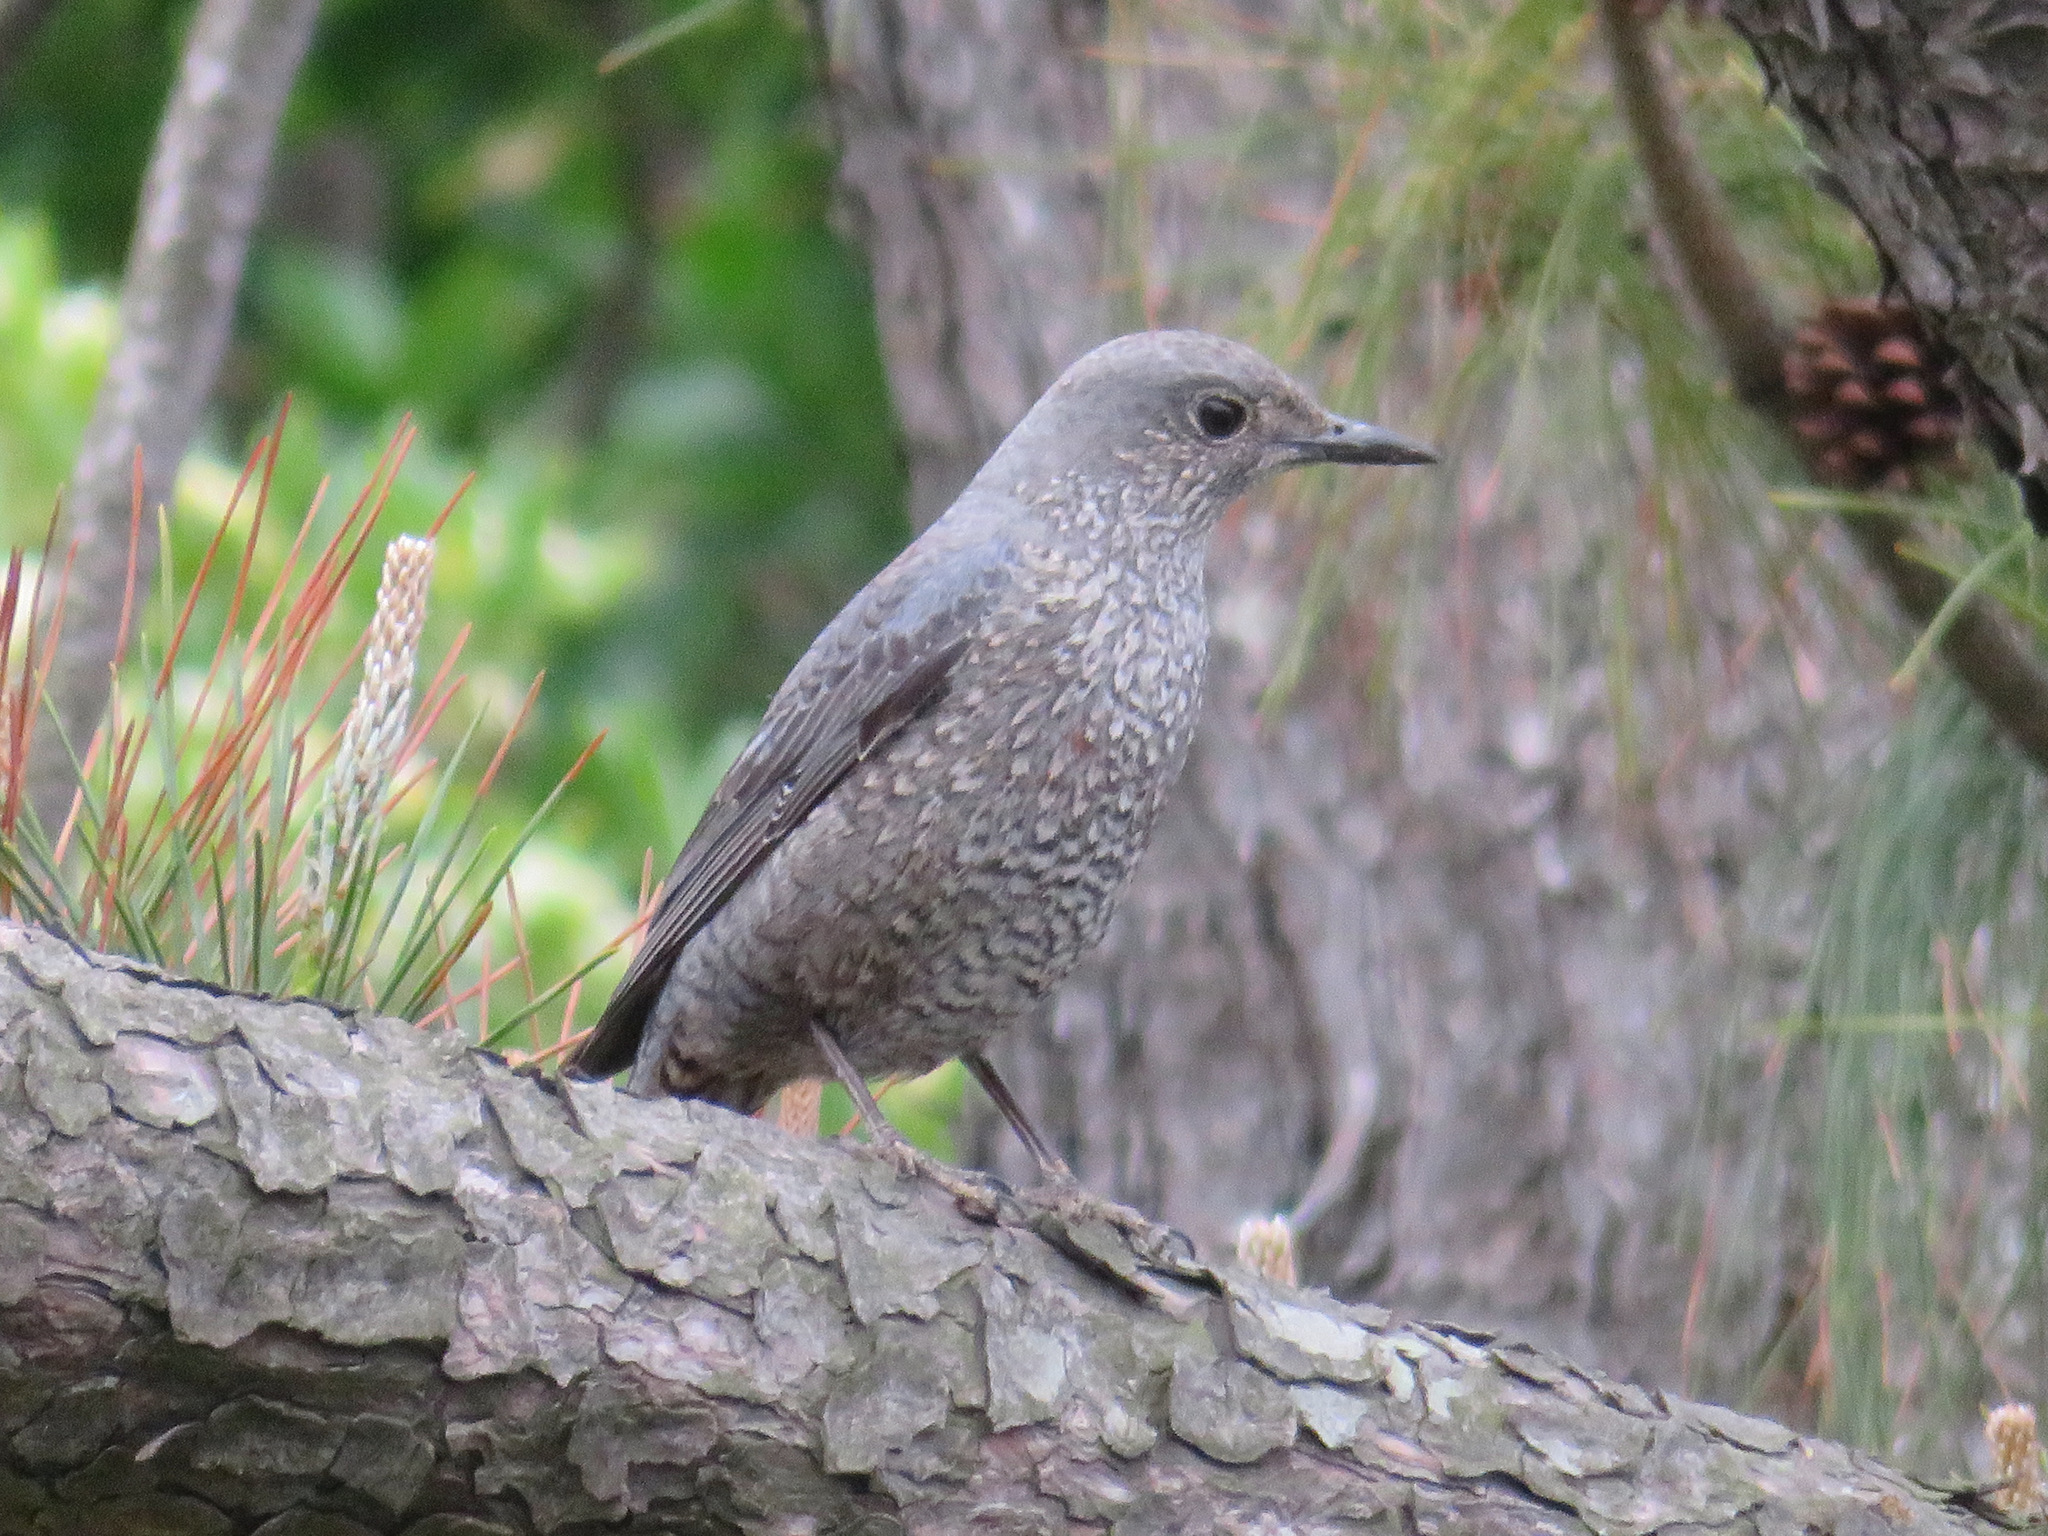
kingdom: Animalia
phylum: Chordata
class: Aves
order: Passeriformes
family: Muscicapidae
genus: Monticola
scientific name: Monticola solitarius
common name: Blue rock thrush
